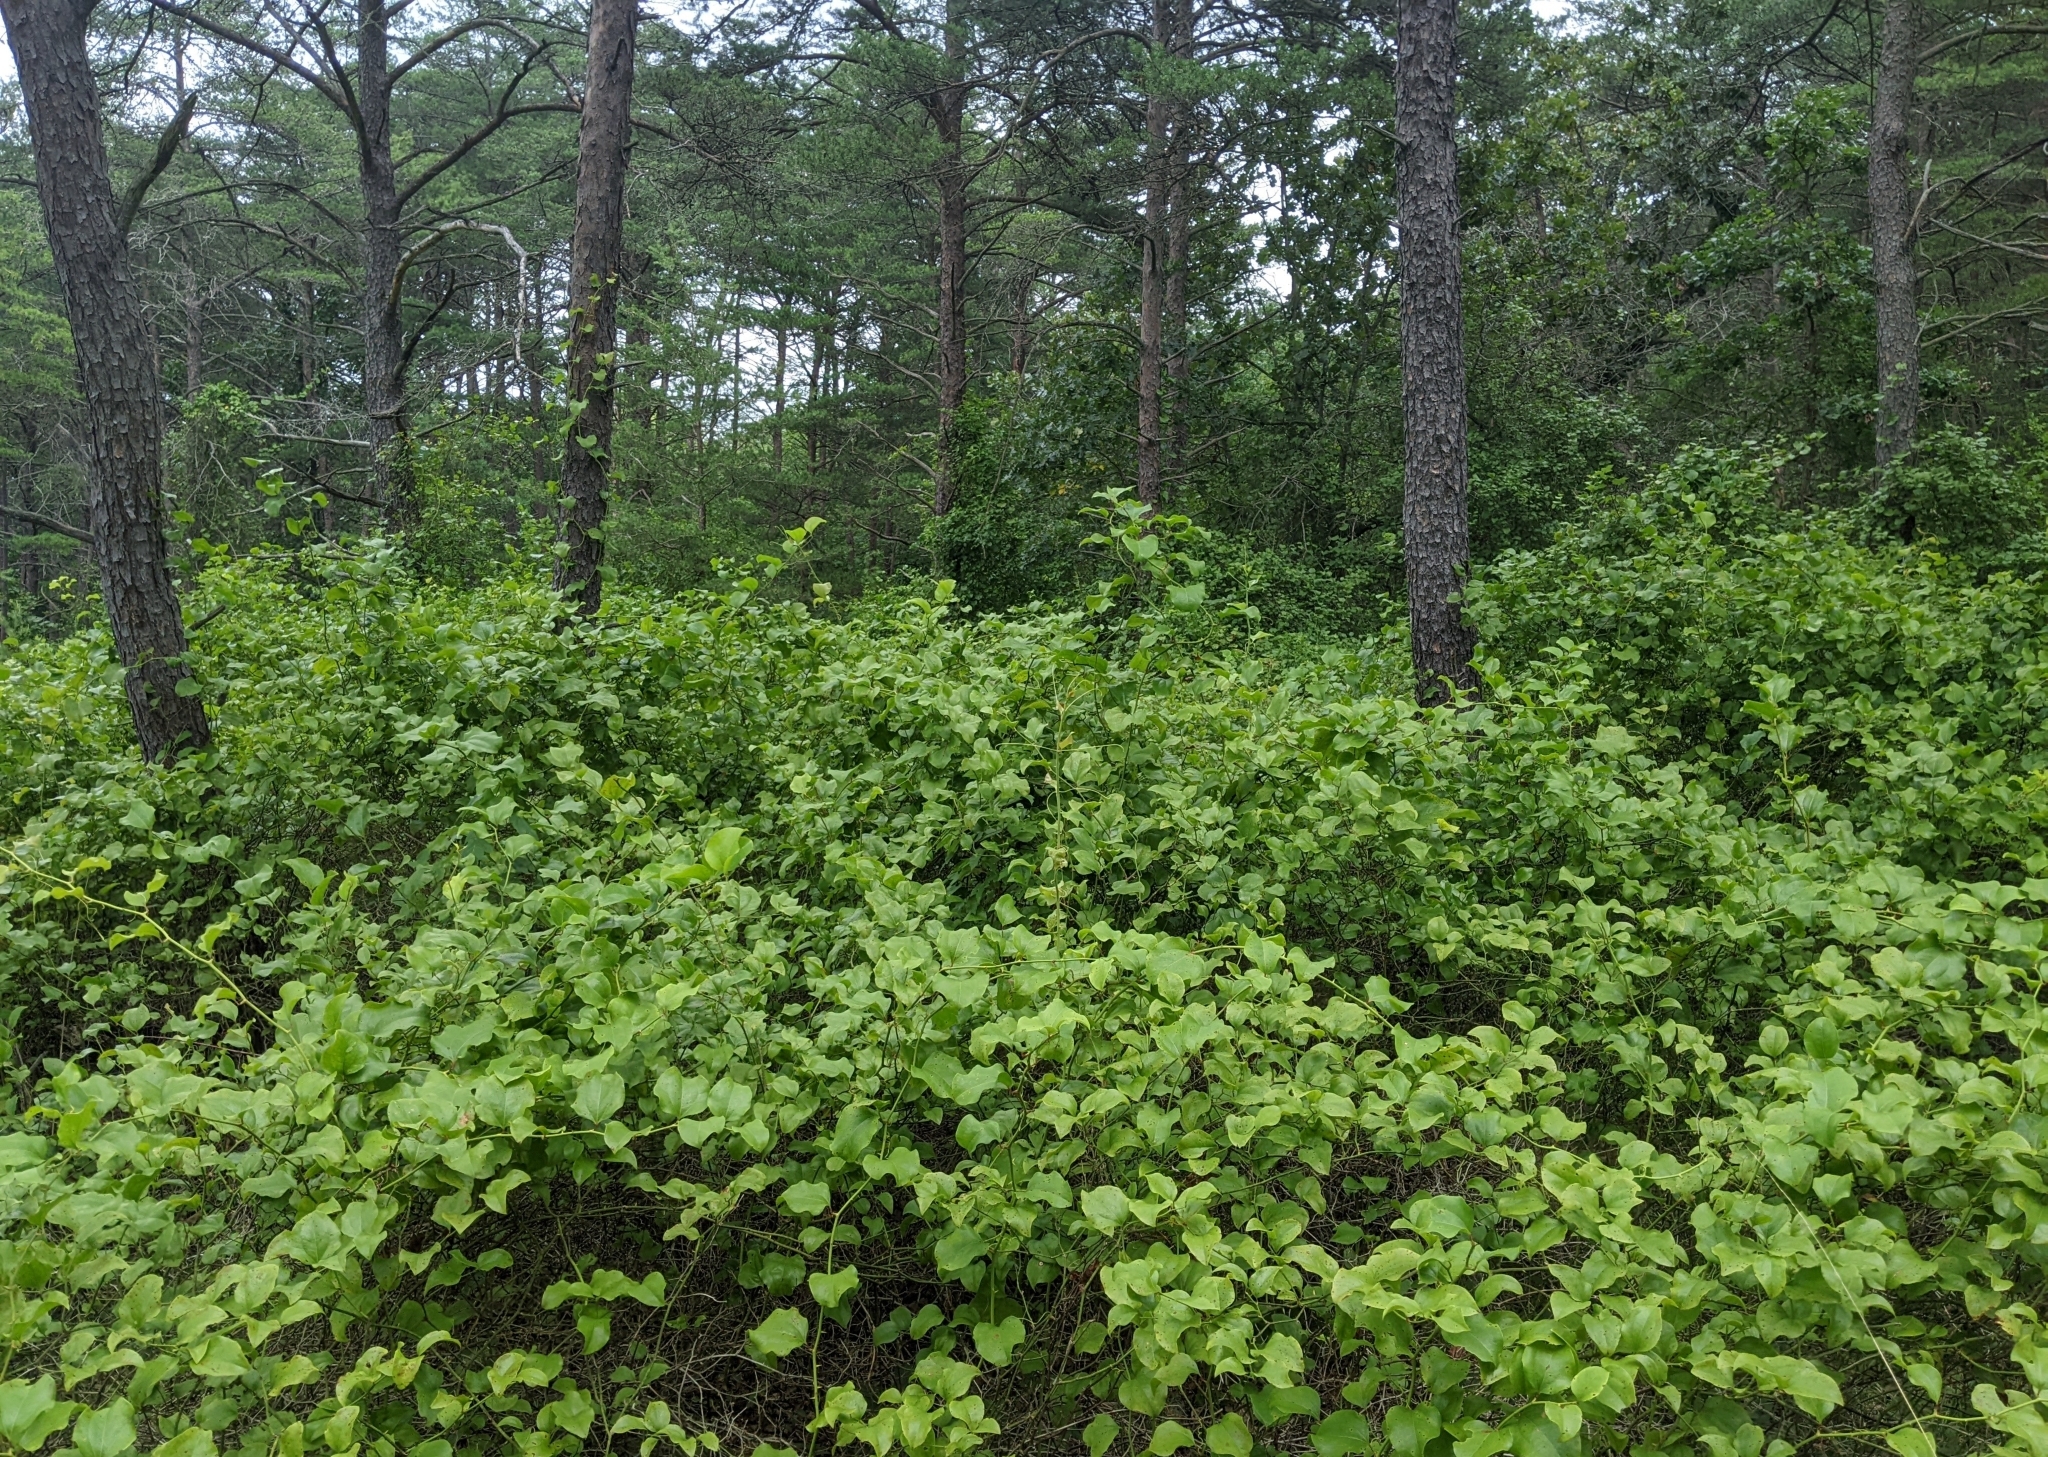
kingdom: Plantae
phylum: Tracheophyta
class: Liliopsida
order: Liliales
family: Smilacaceae
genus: Smilax
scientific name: Smilax rotundifolia
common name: Bullbriar
